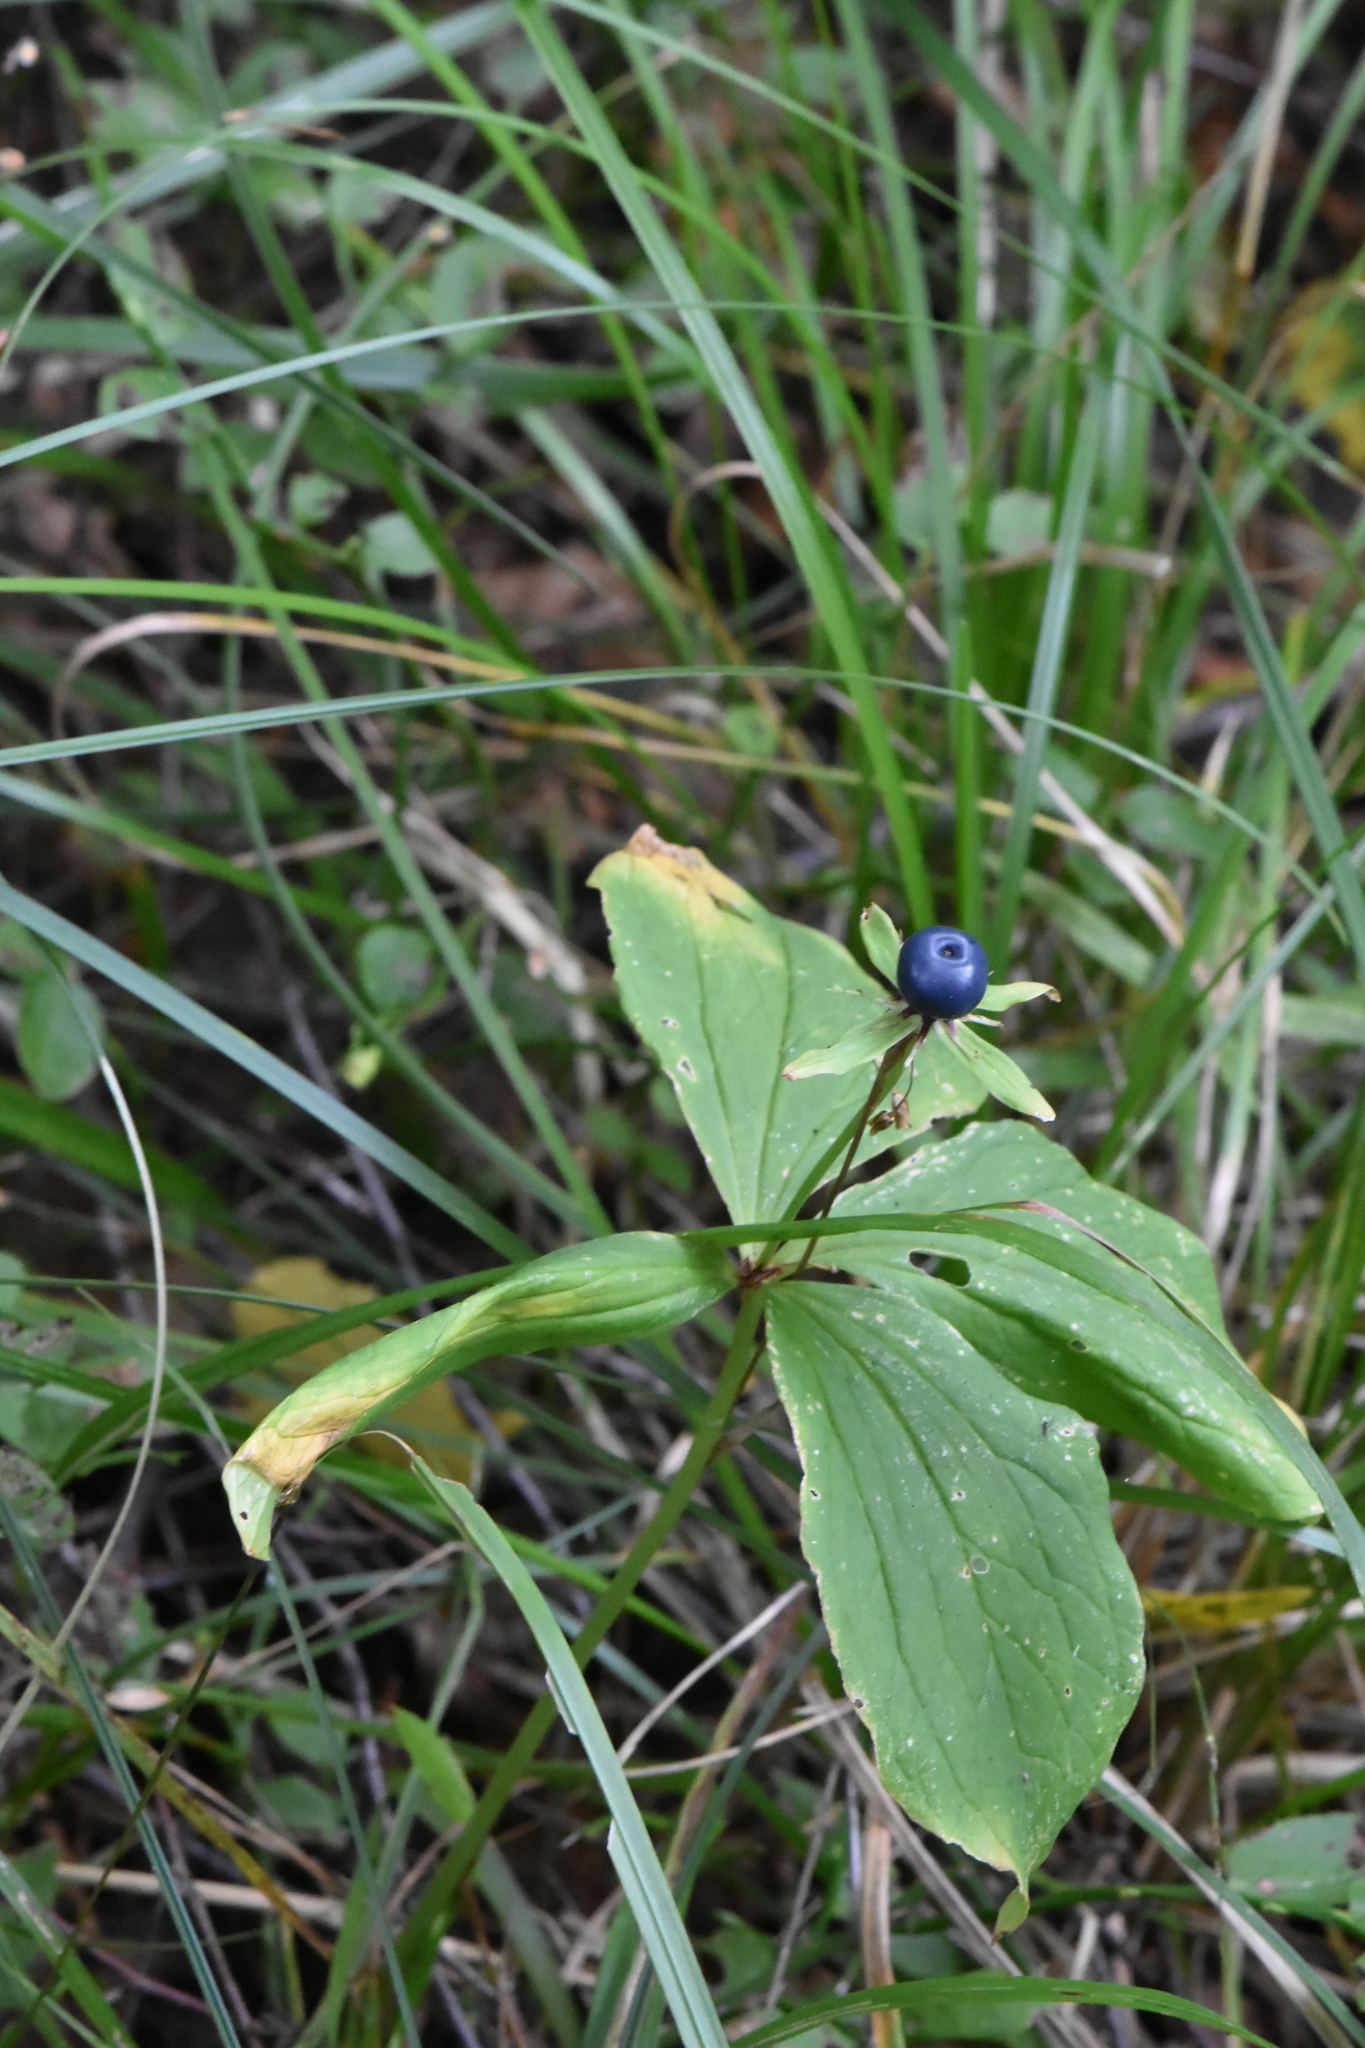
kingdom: Plantae
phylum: Tracheophyta
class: Liliopsida
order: Liliales
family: Melanthiaceae
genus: Paris
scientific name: Paris quadrifolia
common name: Herb-paris
